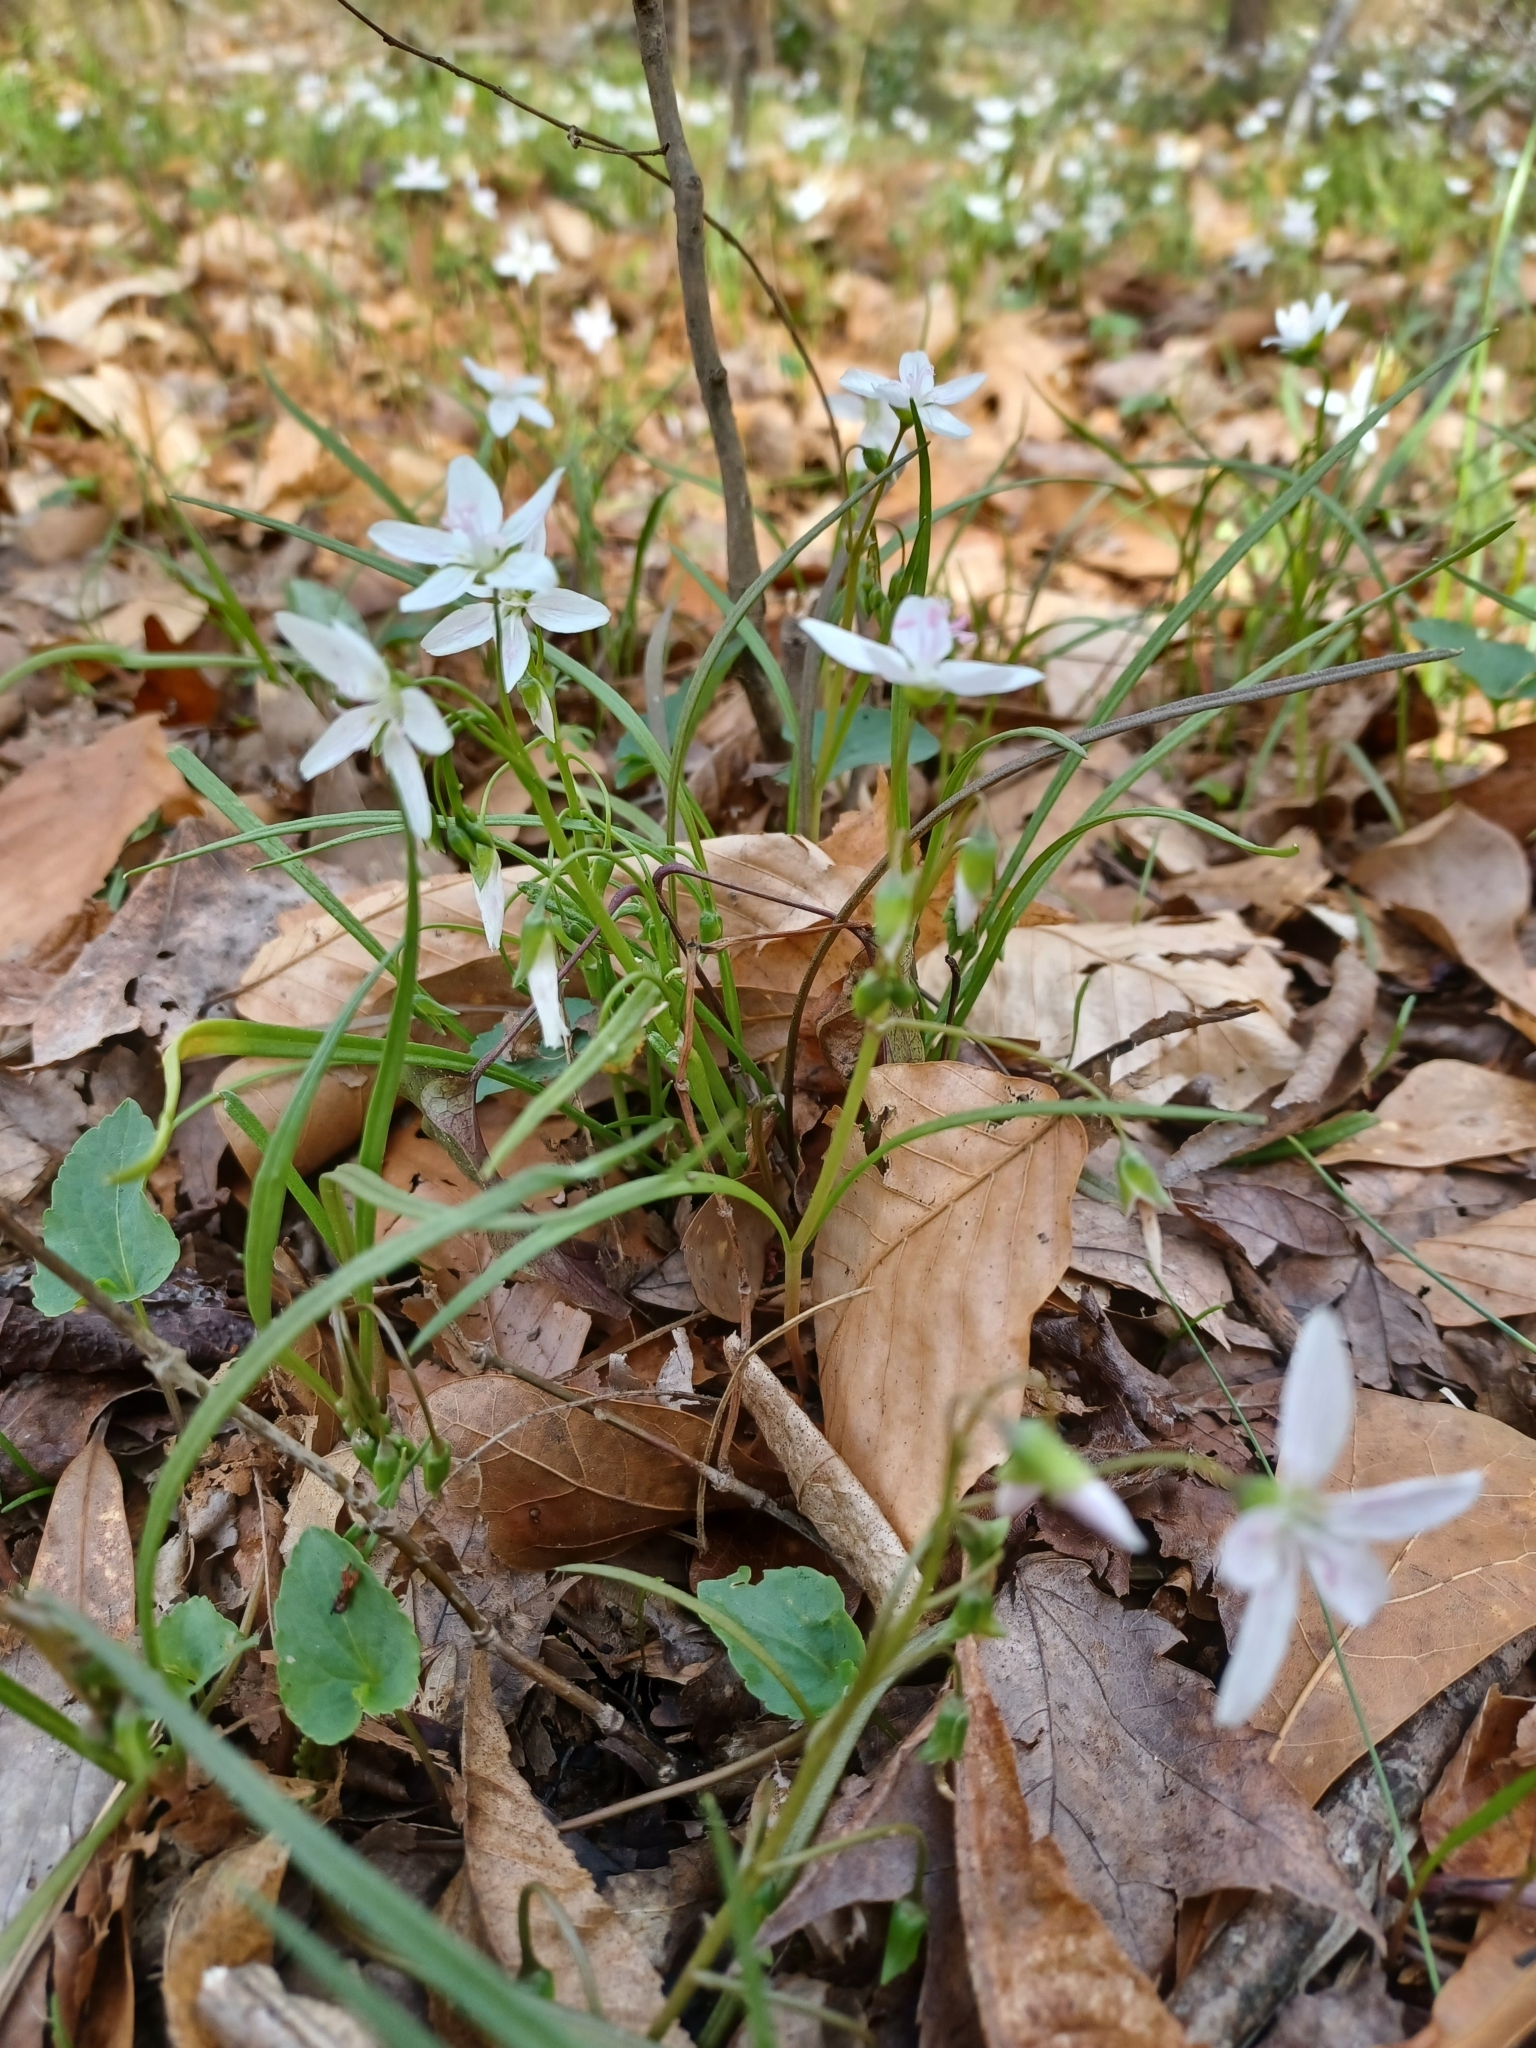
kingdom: Plantae
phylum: Tracheophyta
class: Magnoliopsida
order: Caryophyllales
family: Montiaceae
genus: Claytonia
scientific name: Claytonia virginica
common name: Virginia springbeauty
